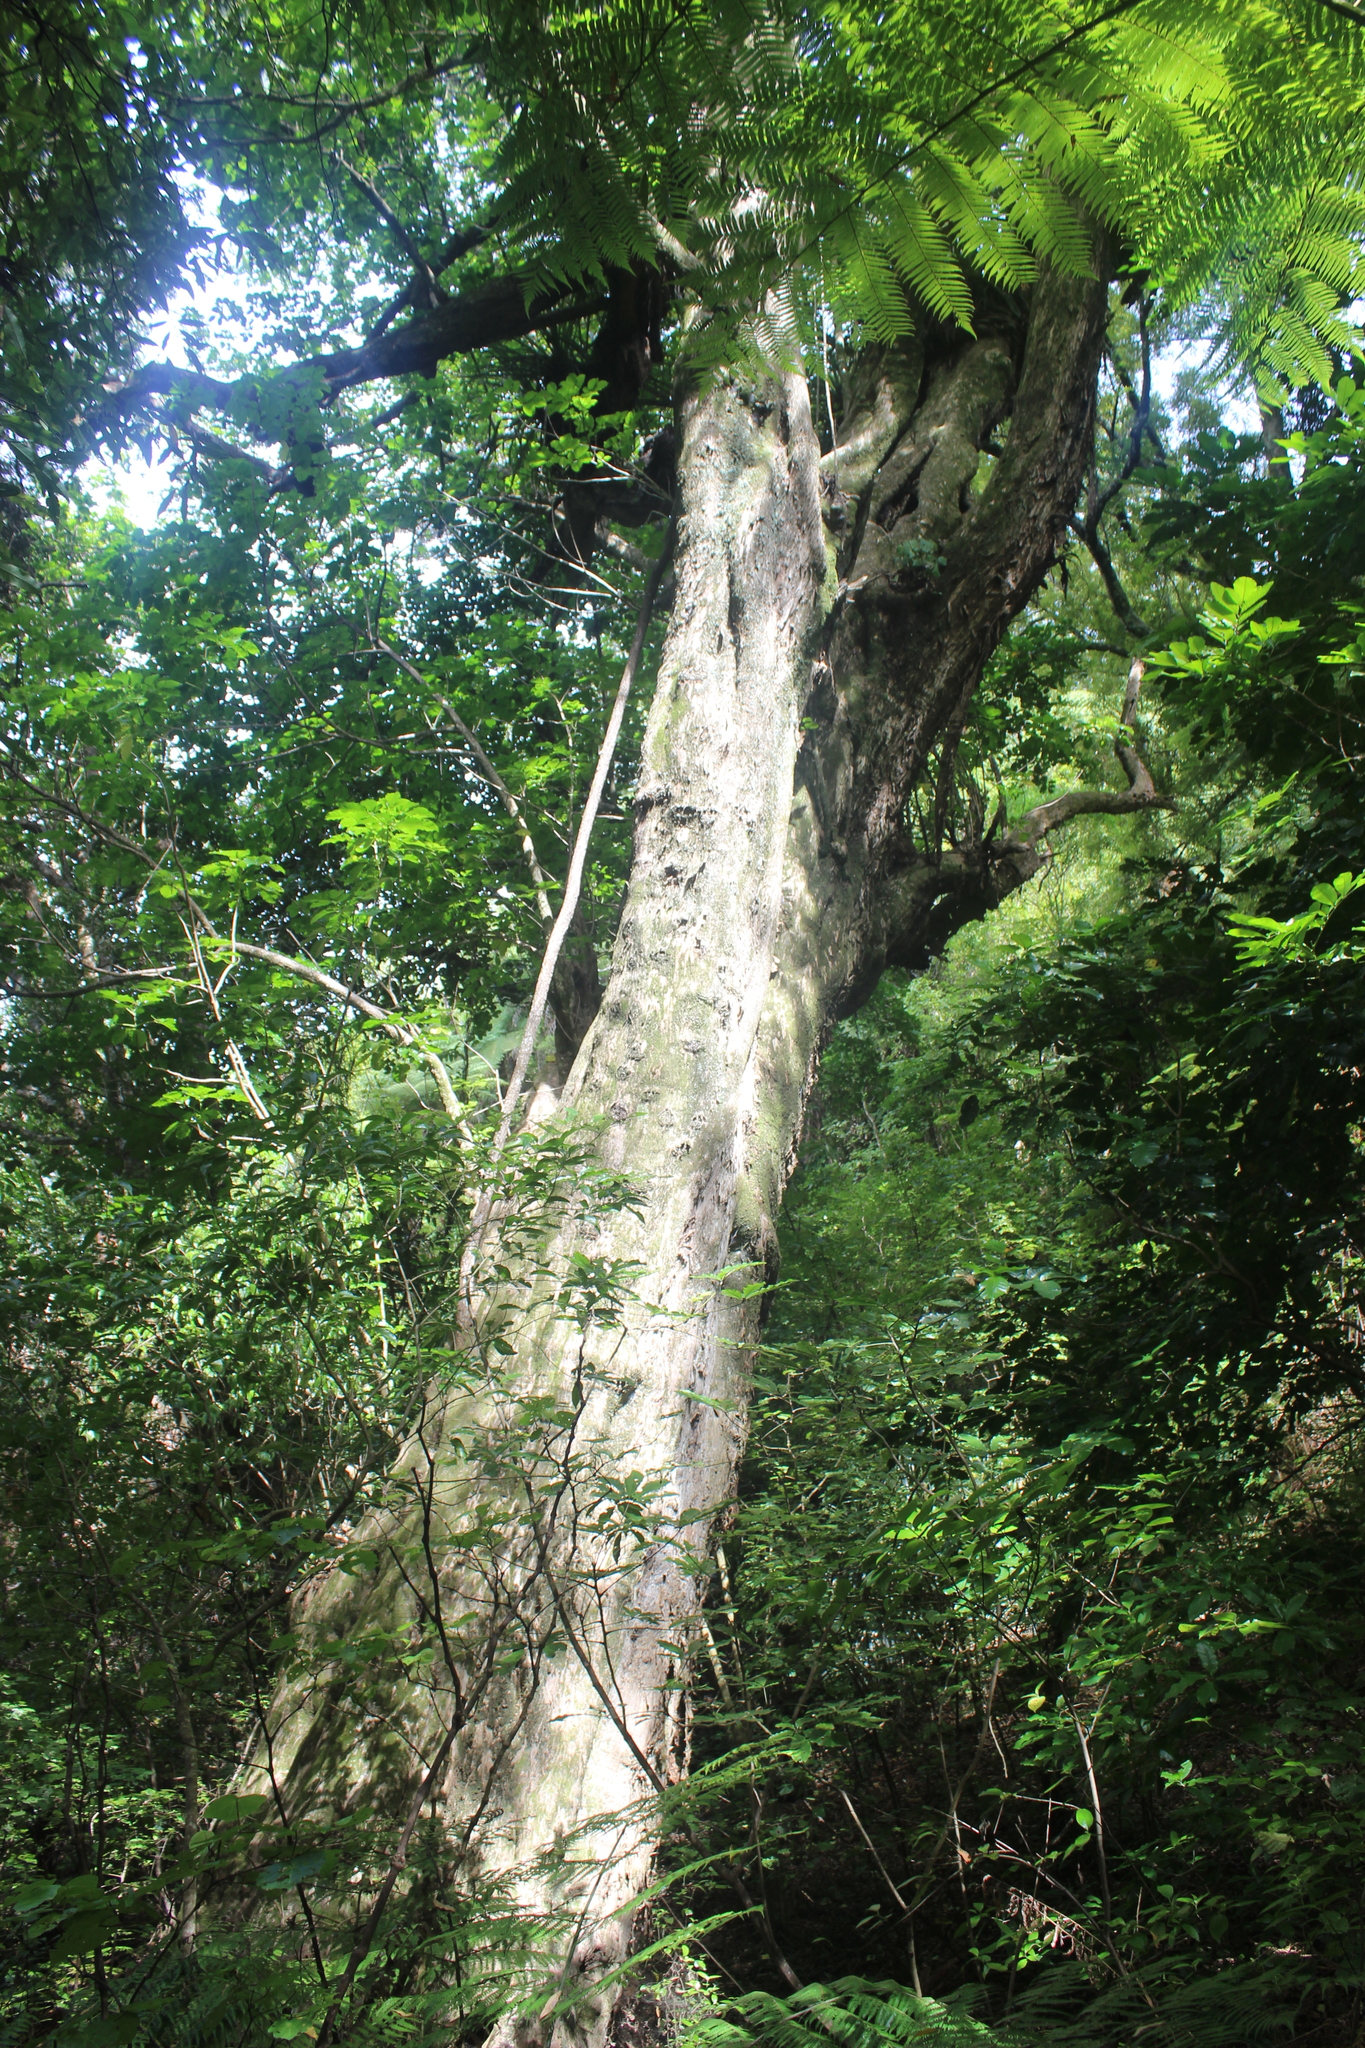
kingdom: Plantae
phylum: Tracheophyta
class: Magnoliopsida
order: Lamiales
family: Lamiaceae
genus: Vitex
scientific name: Vitex lucens
